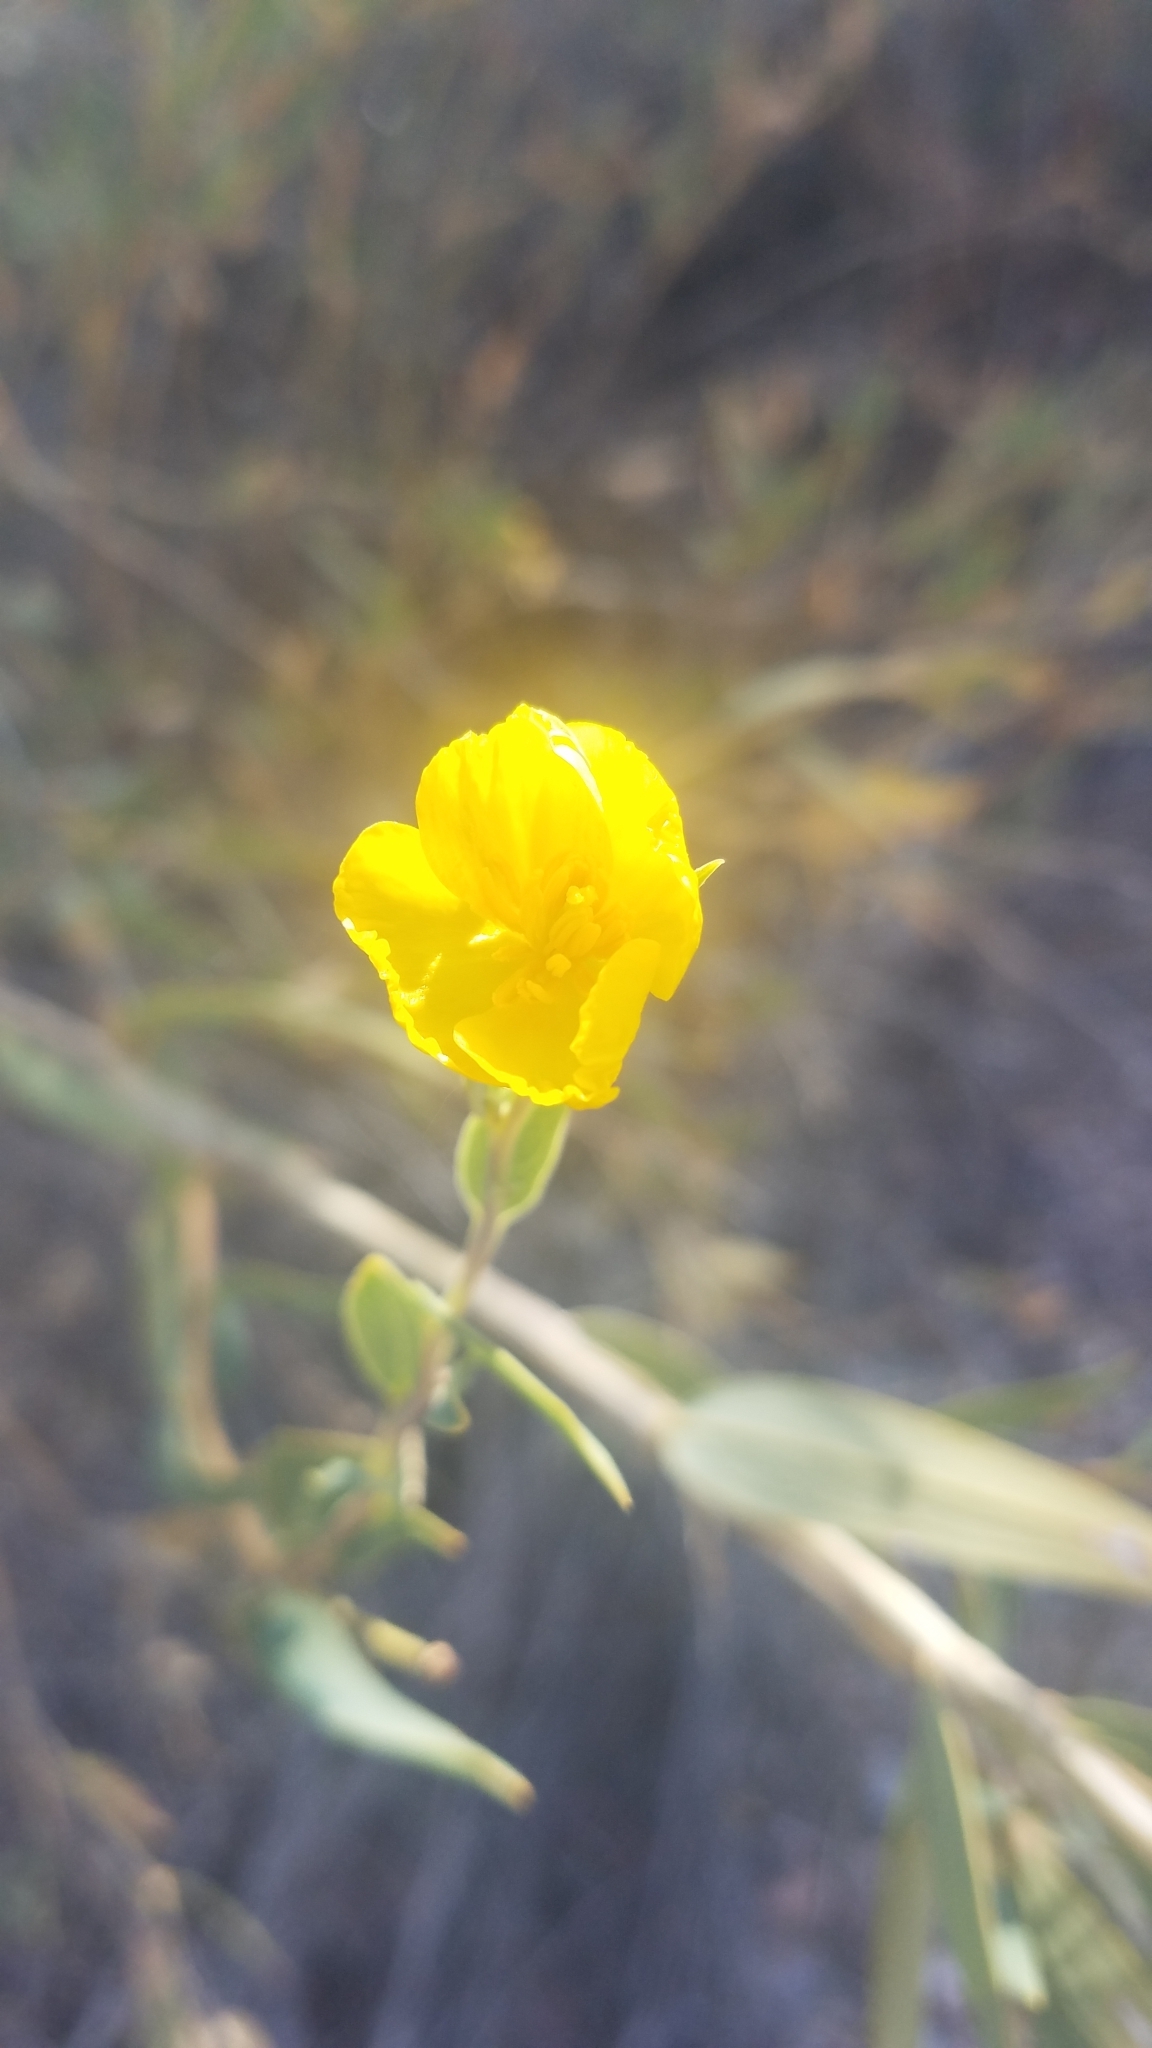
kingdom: Plantae
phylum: Tracheophyta
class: Magnoliopsida
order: Ranunculales
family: Papaveraceae
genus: Dendromecon
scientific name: Dendromecon rigida
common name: Tree poppy
